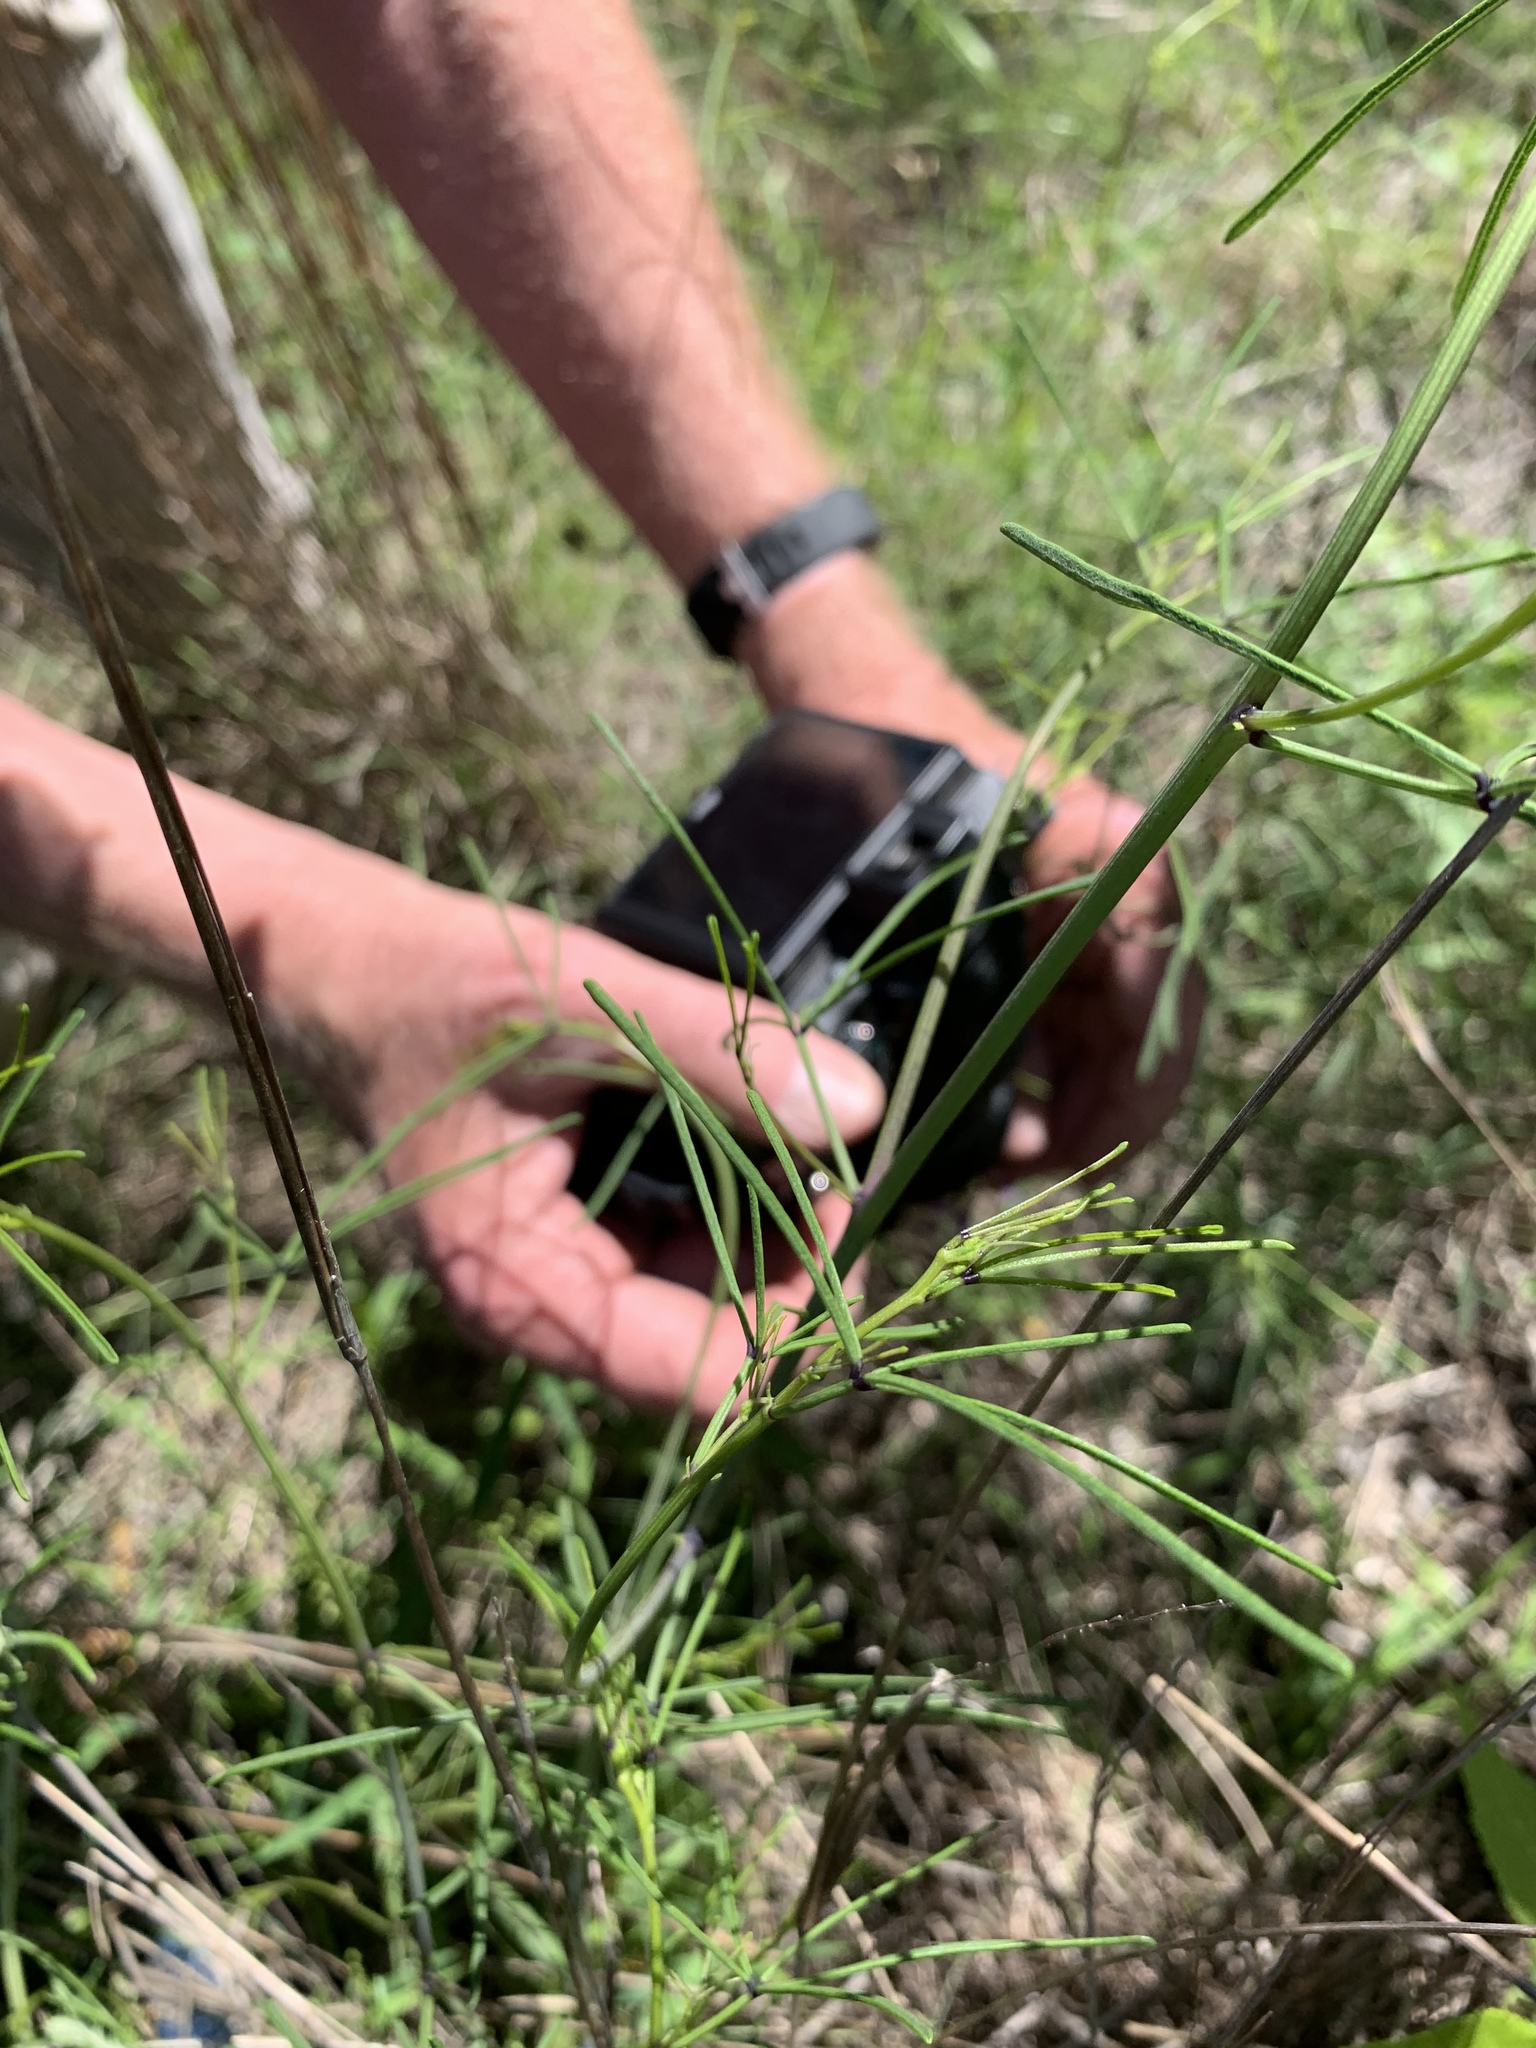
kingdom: Plantae
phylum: Tracheophyta
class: Magnoliopsida
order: Fabales
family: Fabaceae
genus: Pediomelum
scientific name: Pediomelum linearifolium
